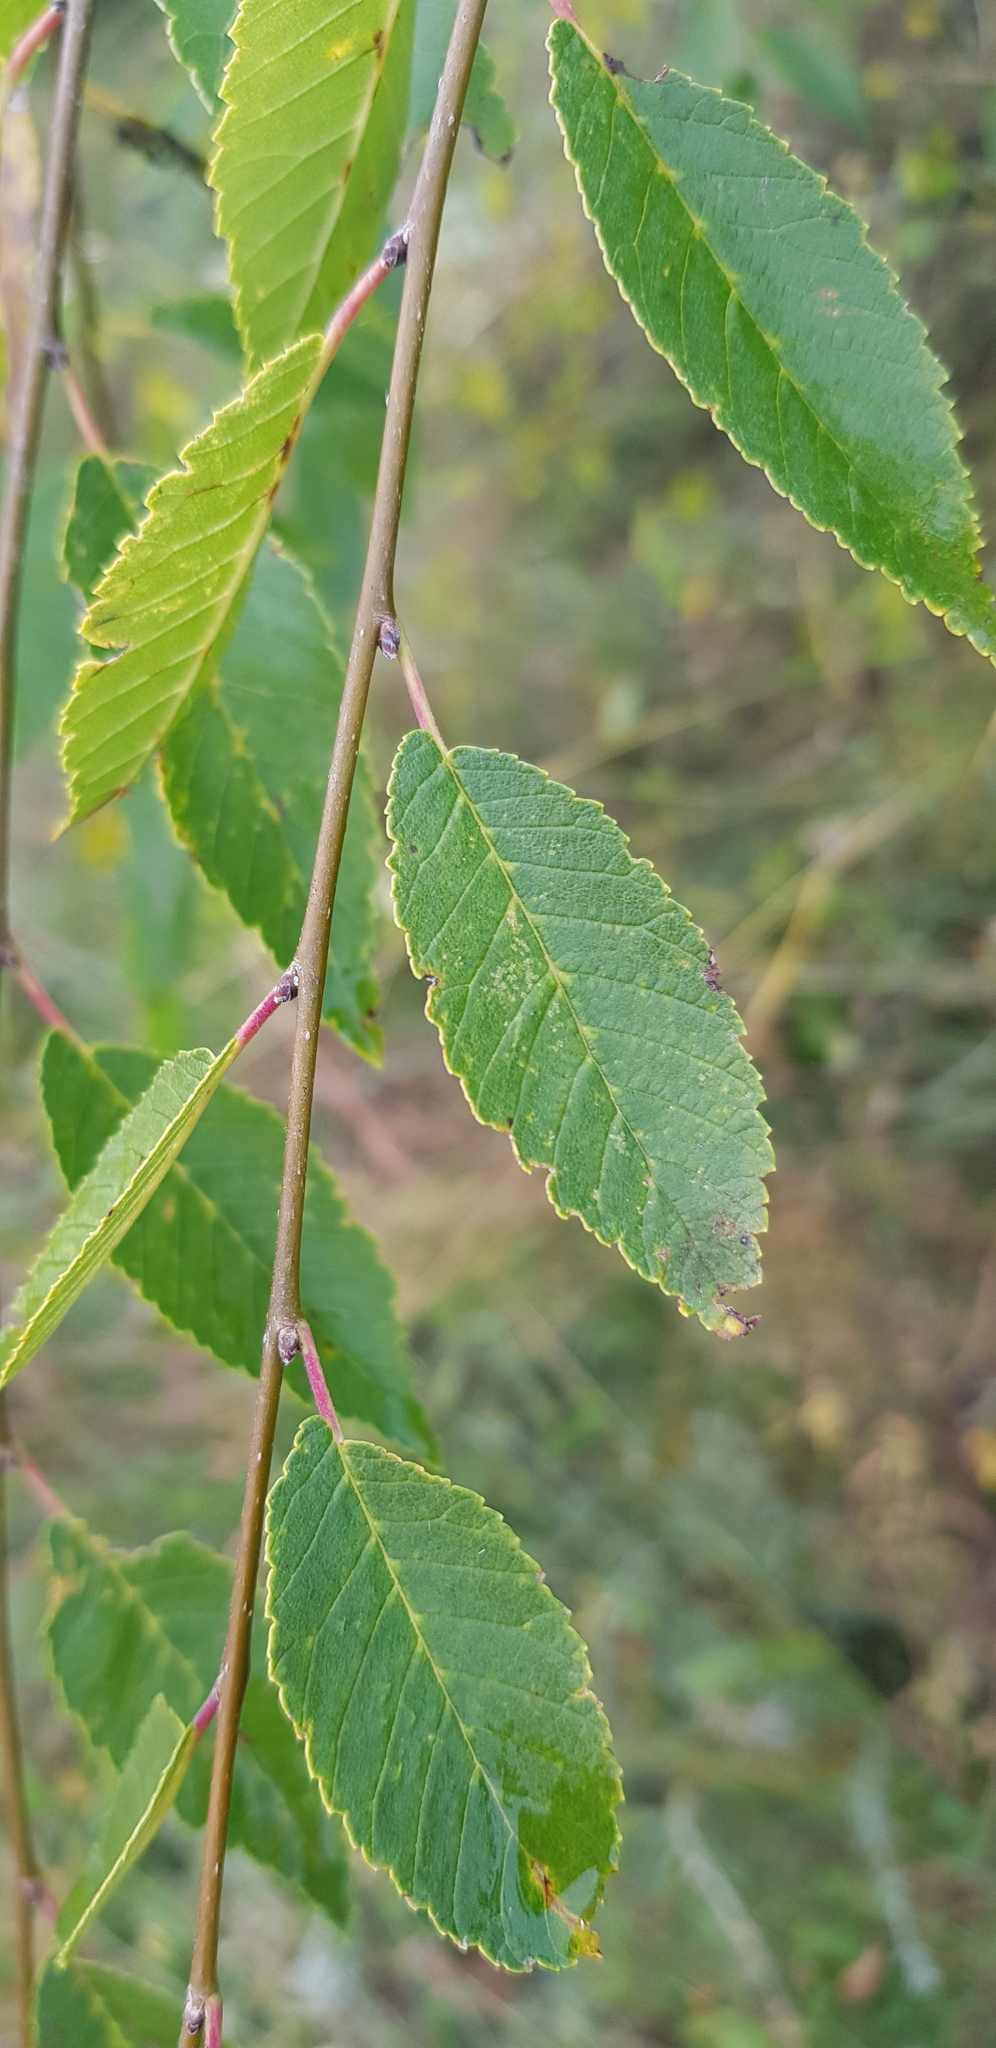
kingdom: Plantae
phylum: Tracheophyta
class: Magnoliopsida
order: Rosales
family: Ulmaceae
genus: Ulmus
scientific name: Ulmus pumila
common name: Siberian elm
